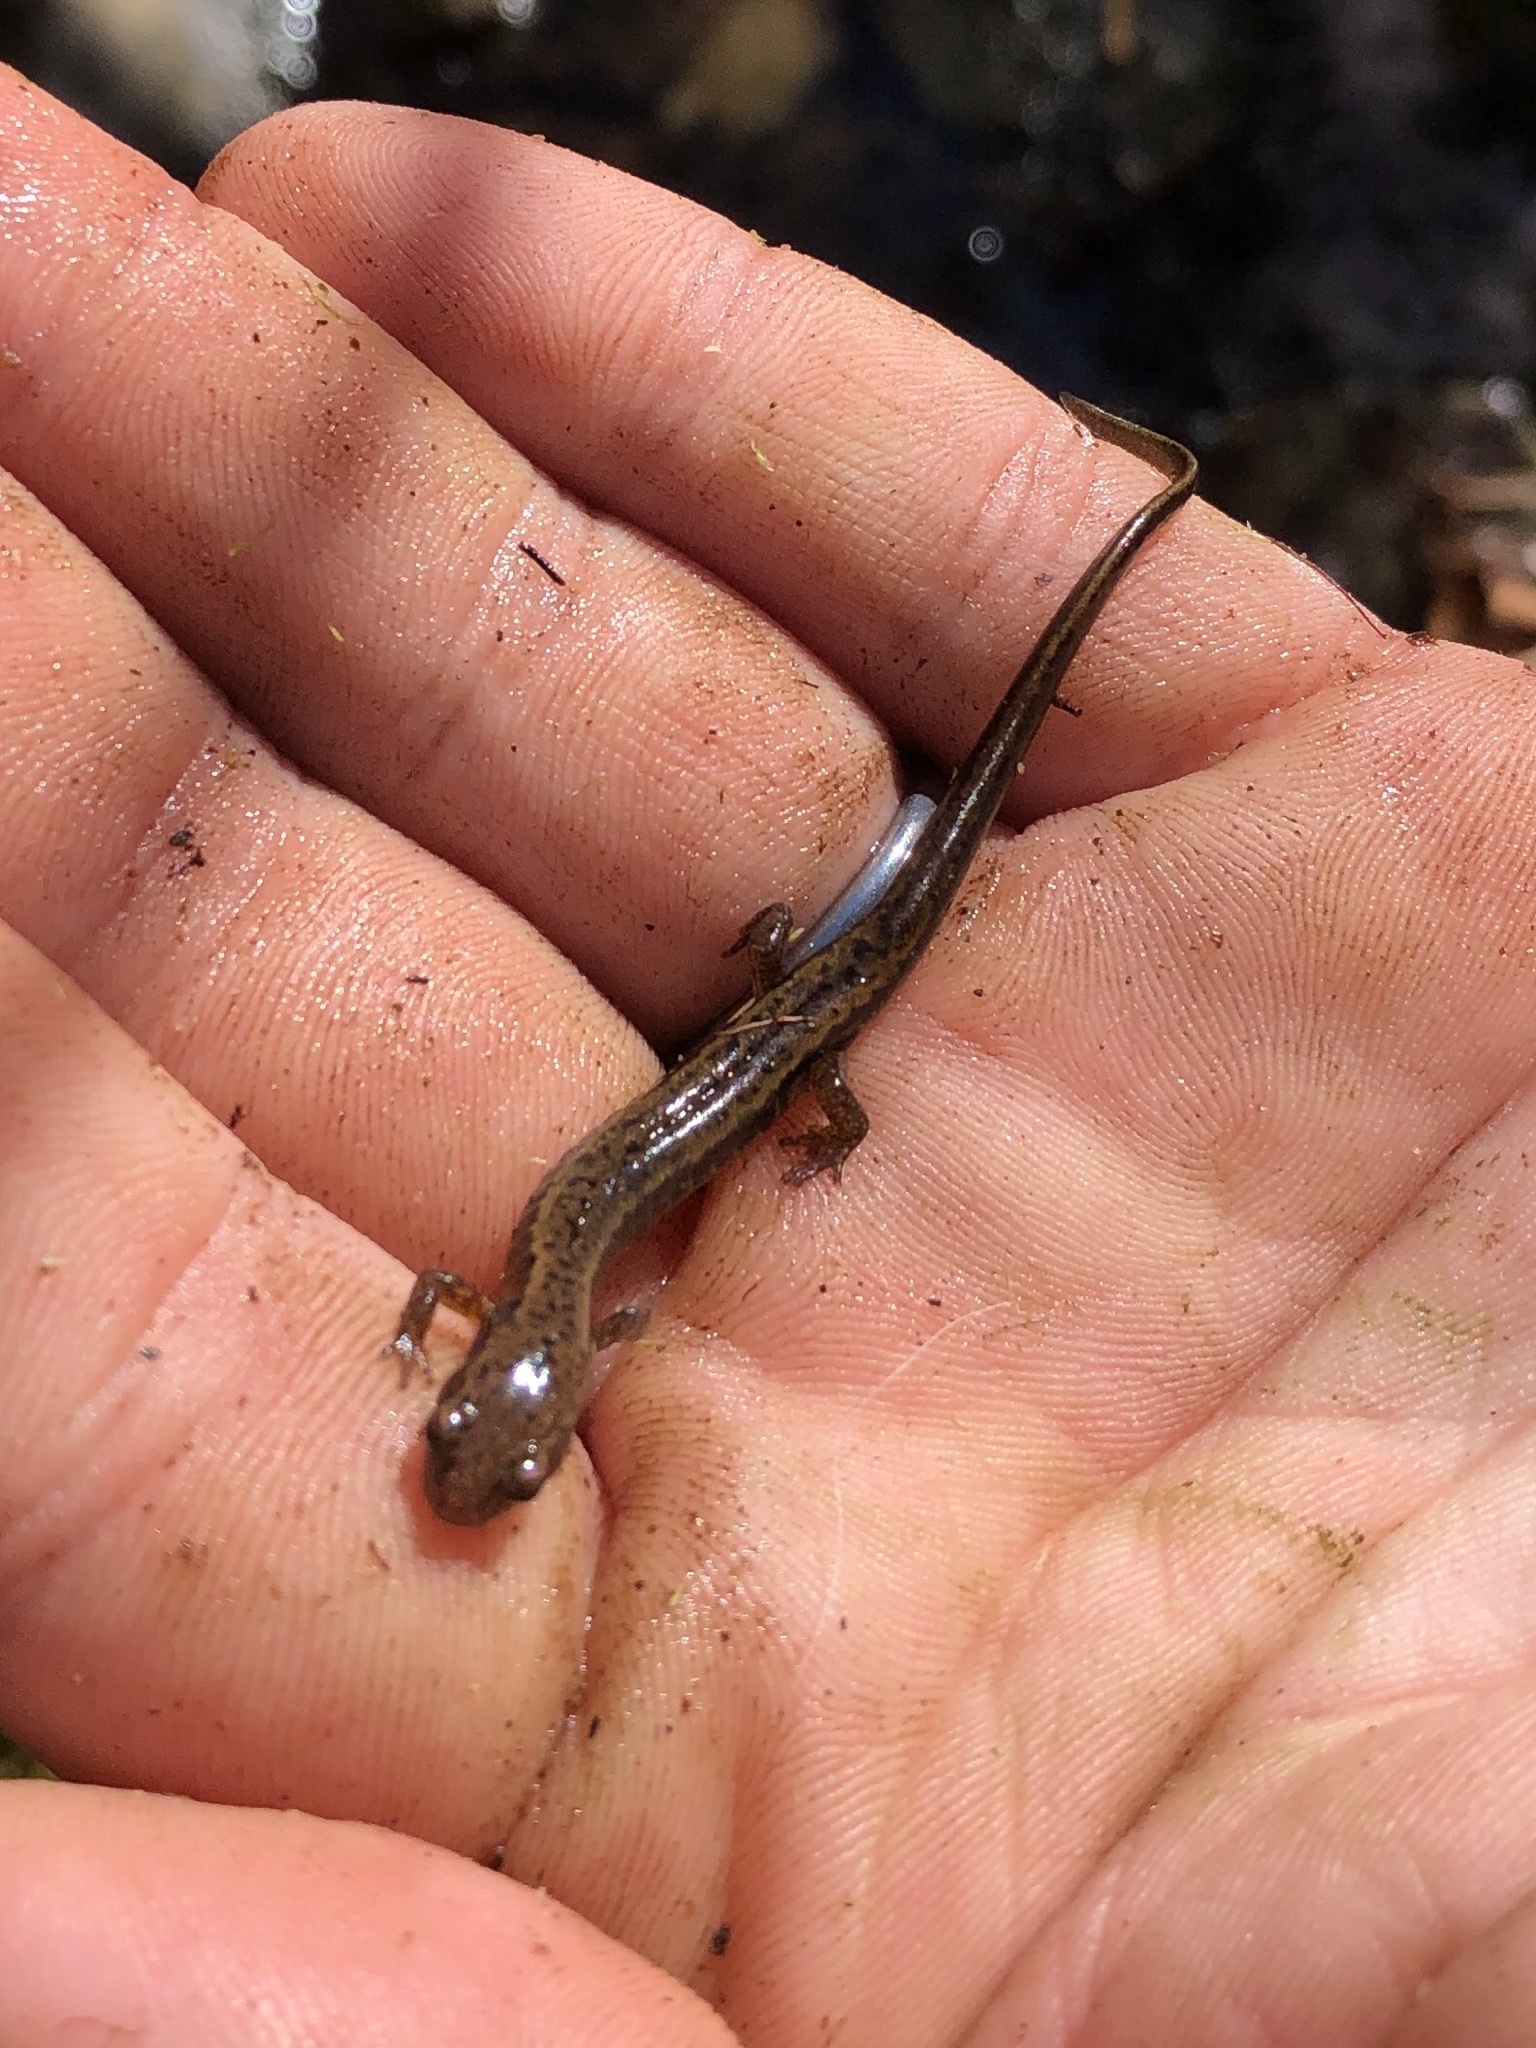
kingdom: Animalia
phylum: Chordata
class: Amphibia
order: Caudata
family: Plethodontidae
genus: Eurycea
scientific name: Eurycea bislineata
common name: Northern two-lined salamander
